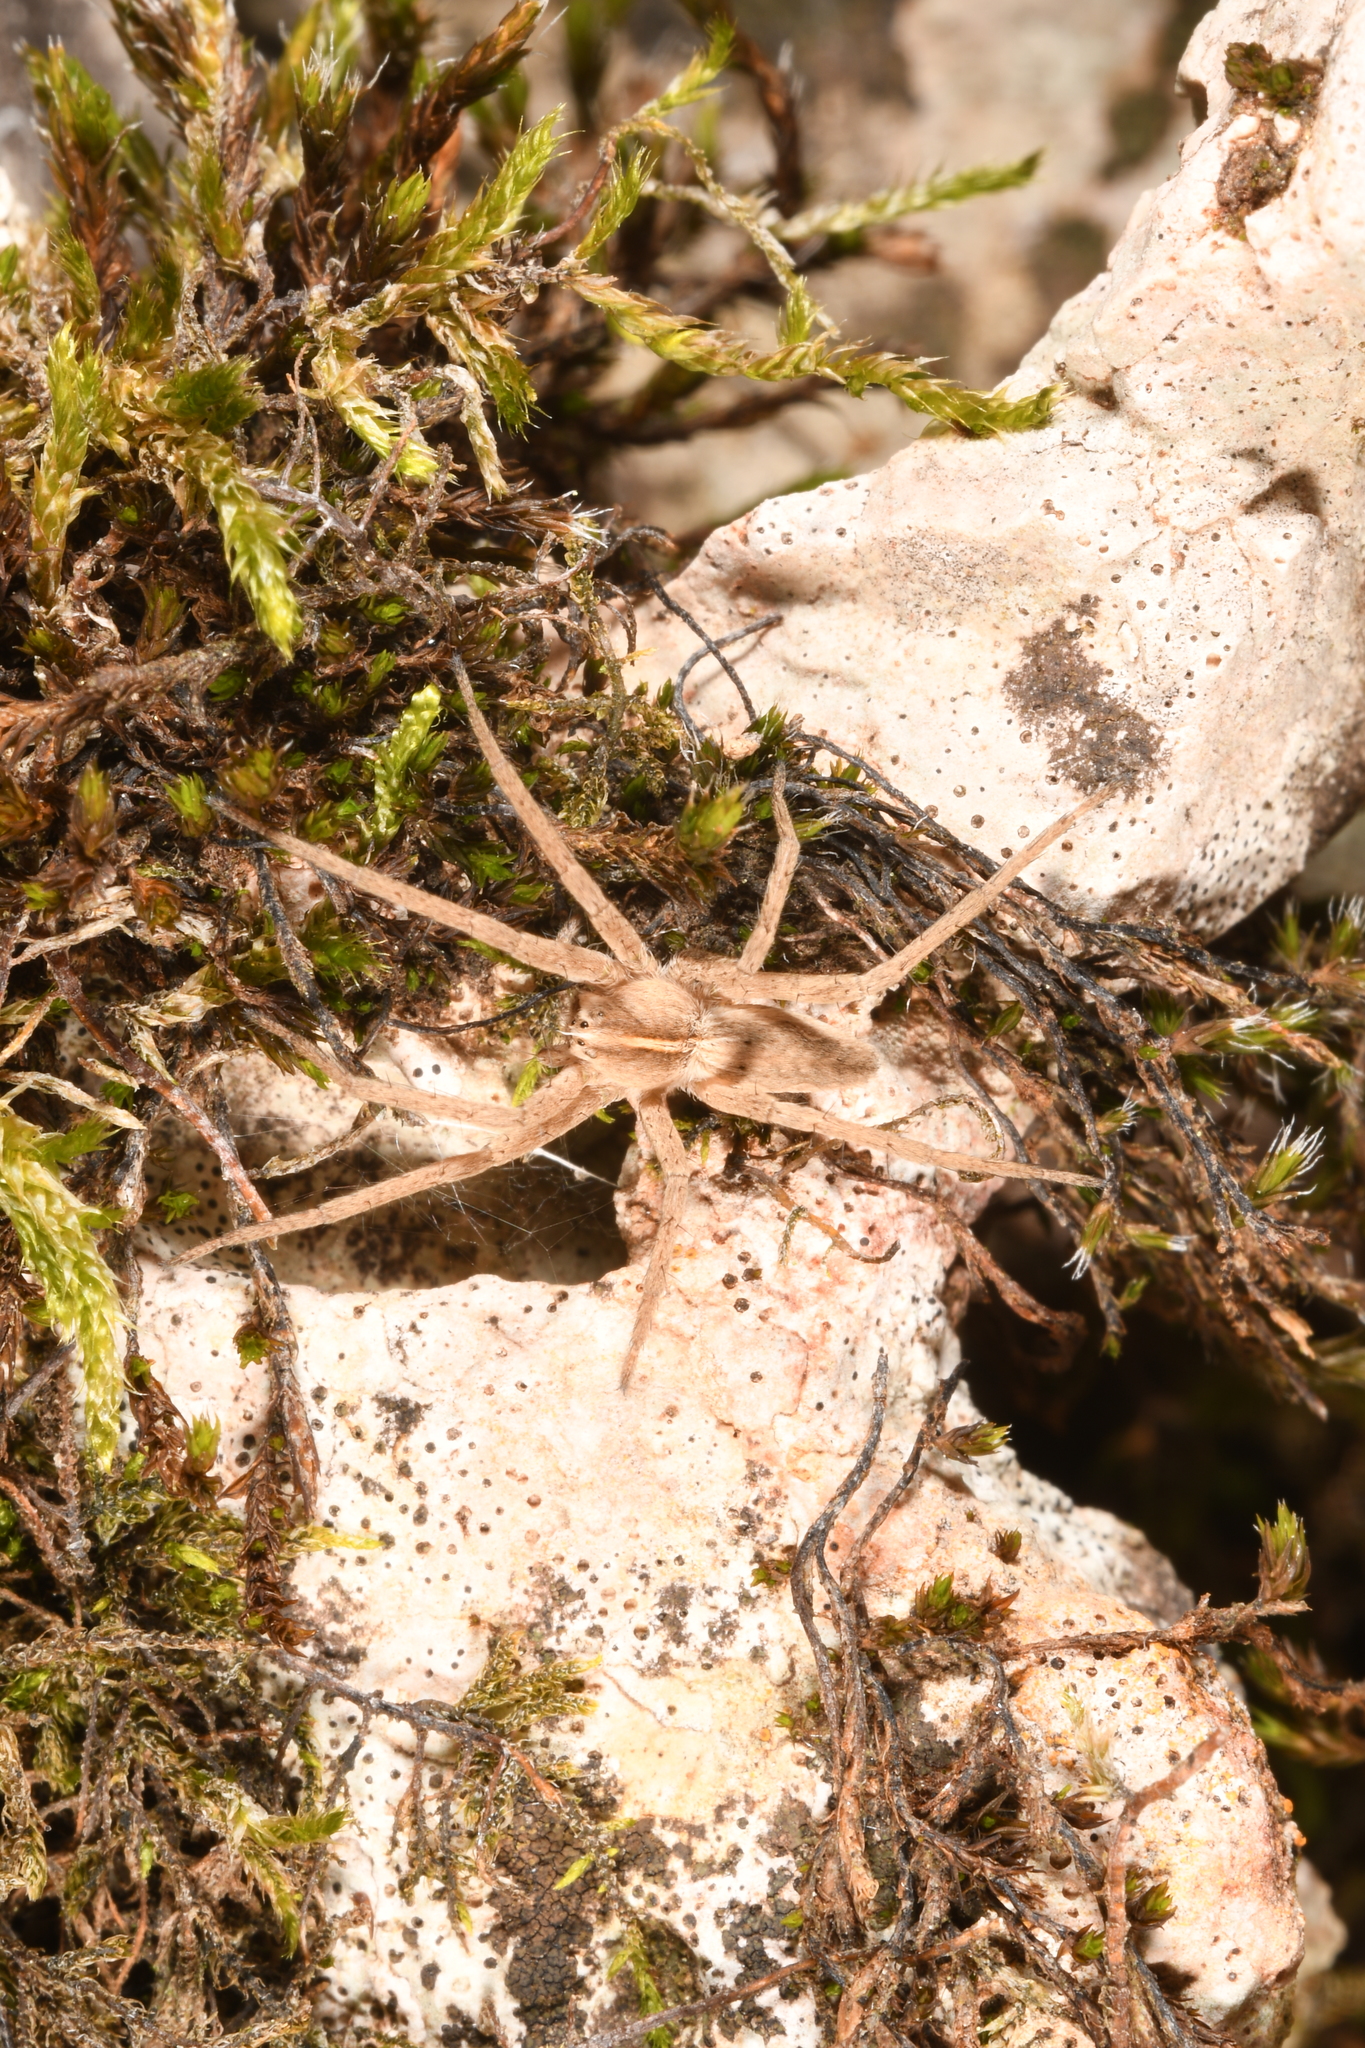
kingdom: Animalia
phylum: Arthropoda
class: Arachnida
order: Araneae
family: Pisauridae
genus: Pisaura
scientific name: Pisaura
